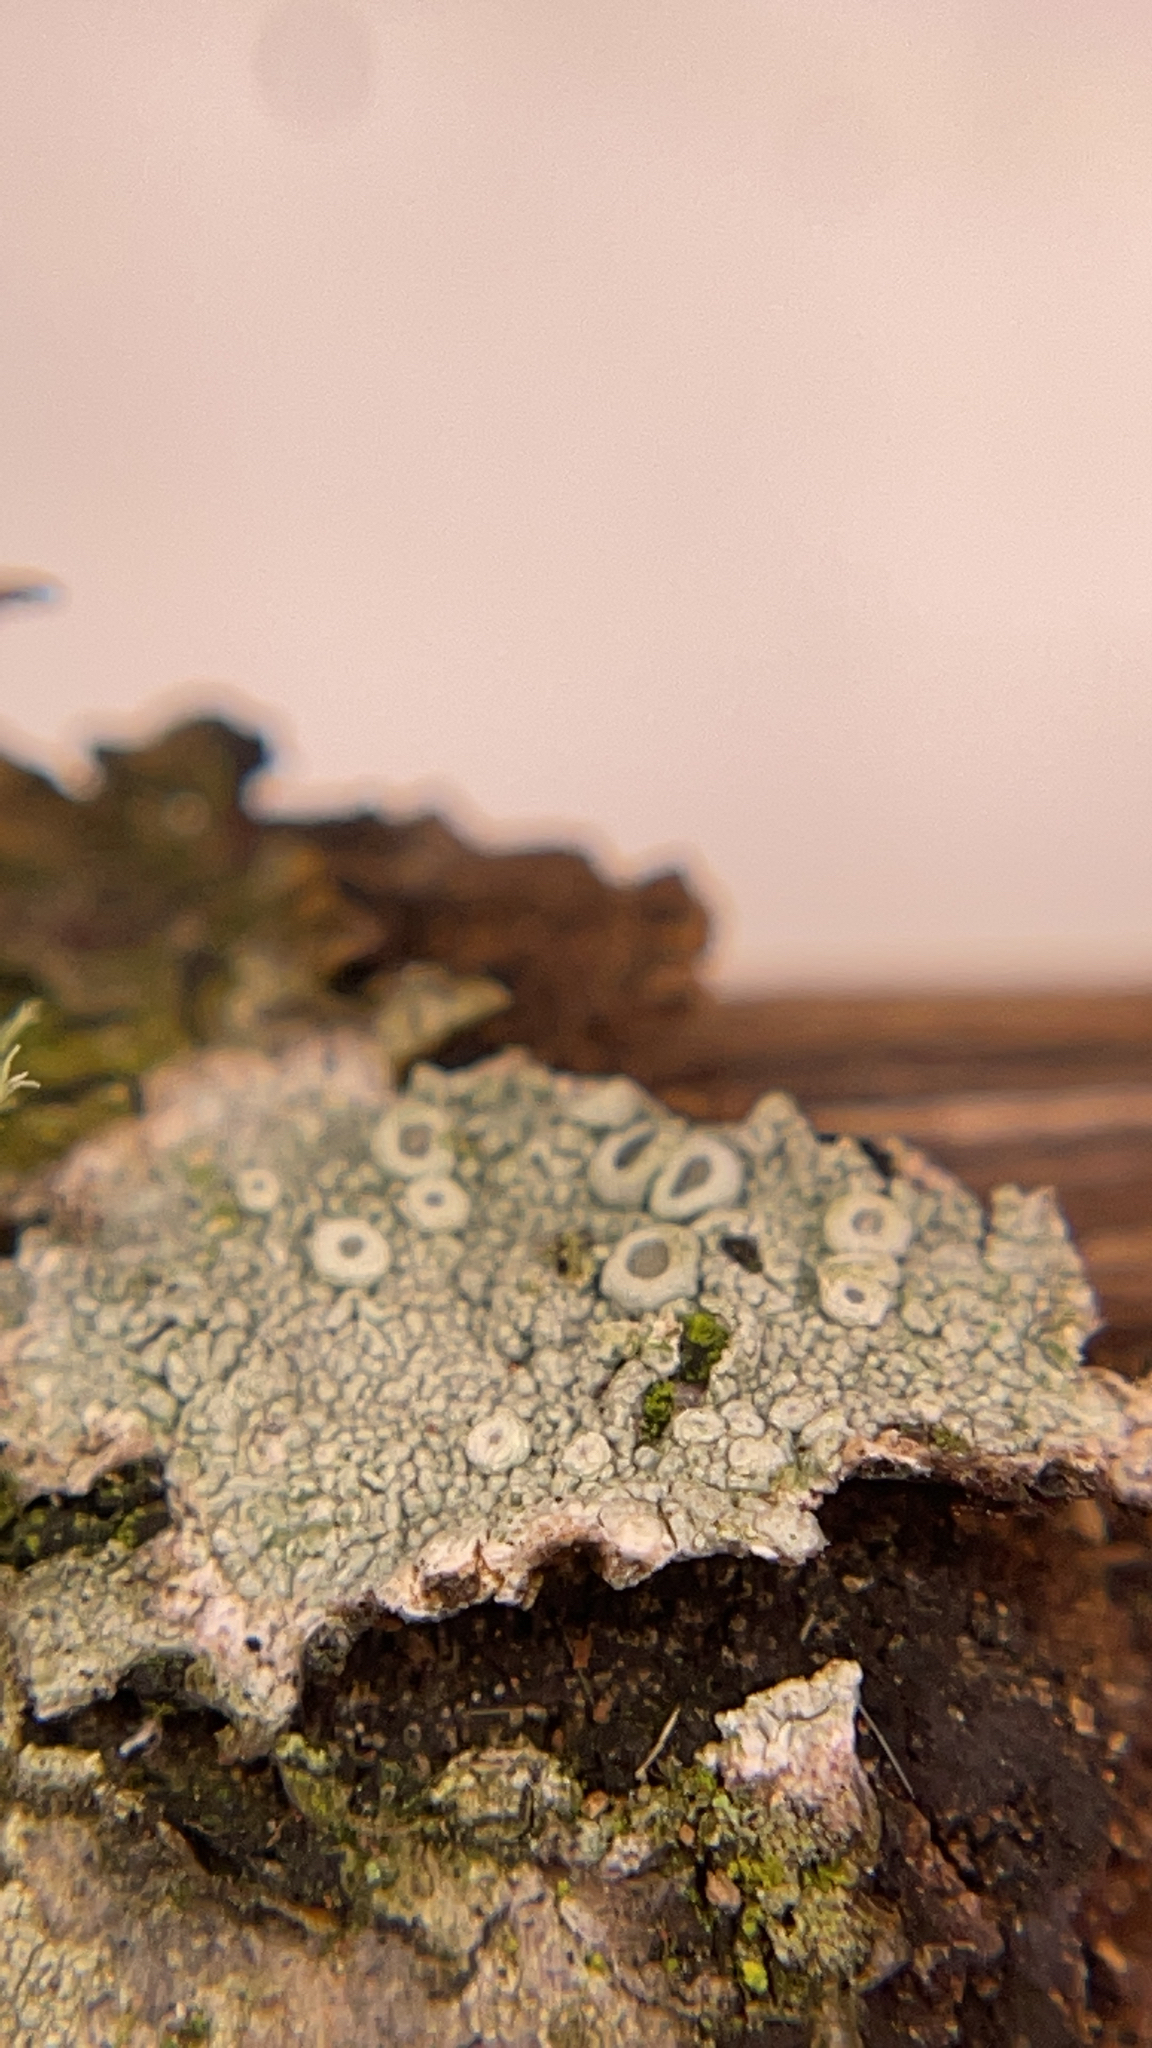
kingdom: Fungi
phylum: Ascomycota
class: Lecanoromycetes
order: Pertusariales
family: Ochrolechiaceae
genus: Ochrolechia
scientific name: Ochrolechia africana
